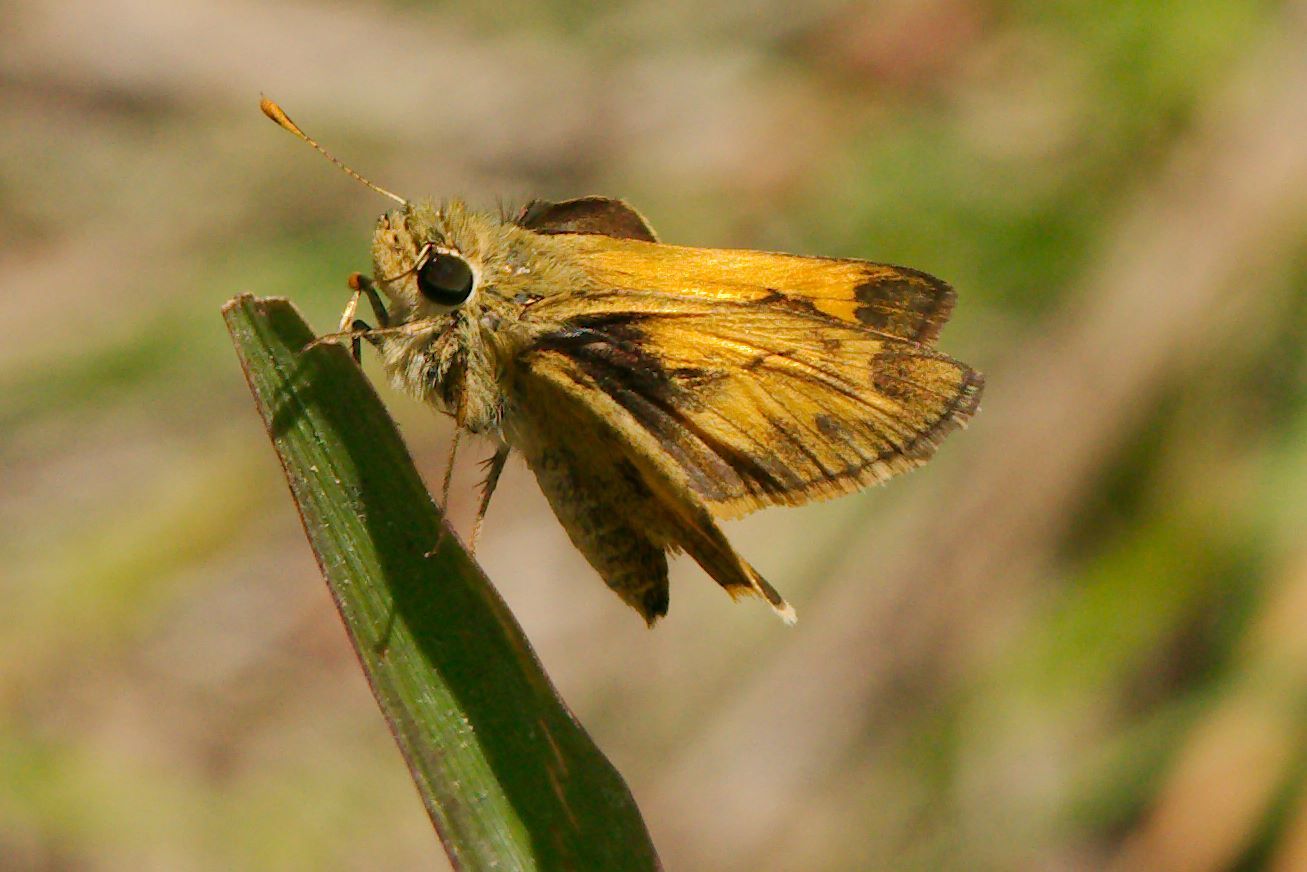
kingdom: Animalia
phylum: Arthropoda
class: Insecta
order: Lepidoptera
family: Hesperiidae
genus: Polites
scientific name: Polites vibex
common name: Whirlabout
